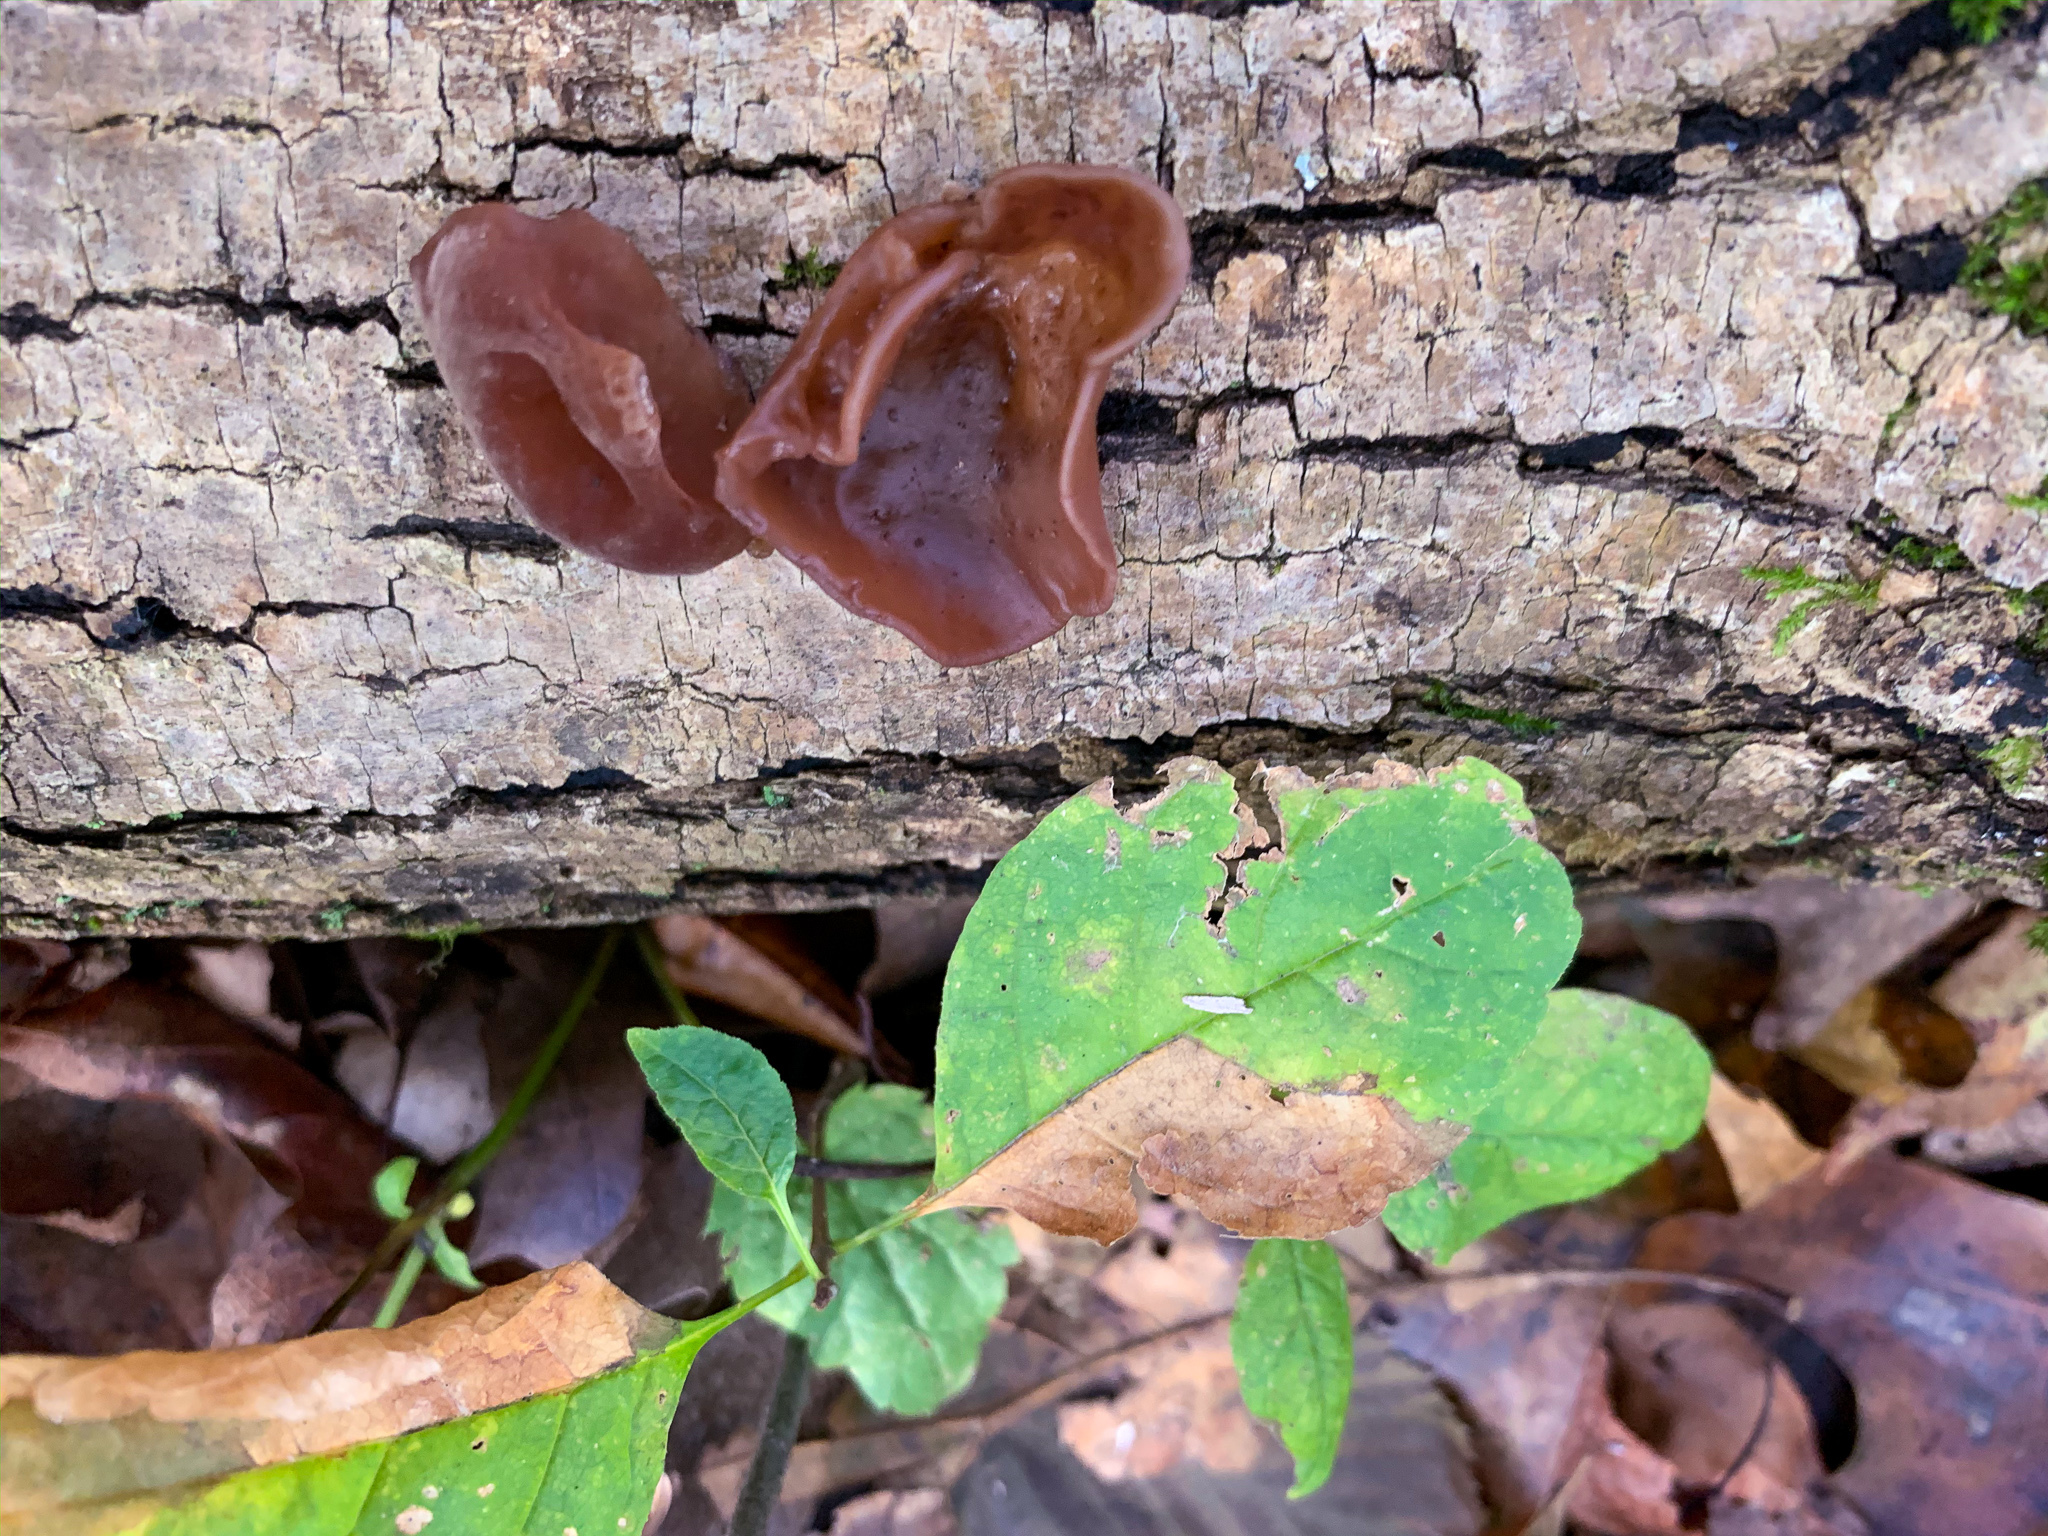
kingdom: Fungi
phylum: Basidiomycota
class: Agaricomycetes
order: Auriculariales
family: Auriculariaceae
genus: Auricularia
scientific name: Auricularia angiospermarum
